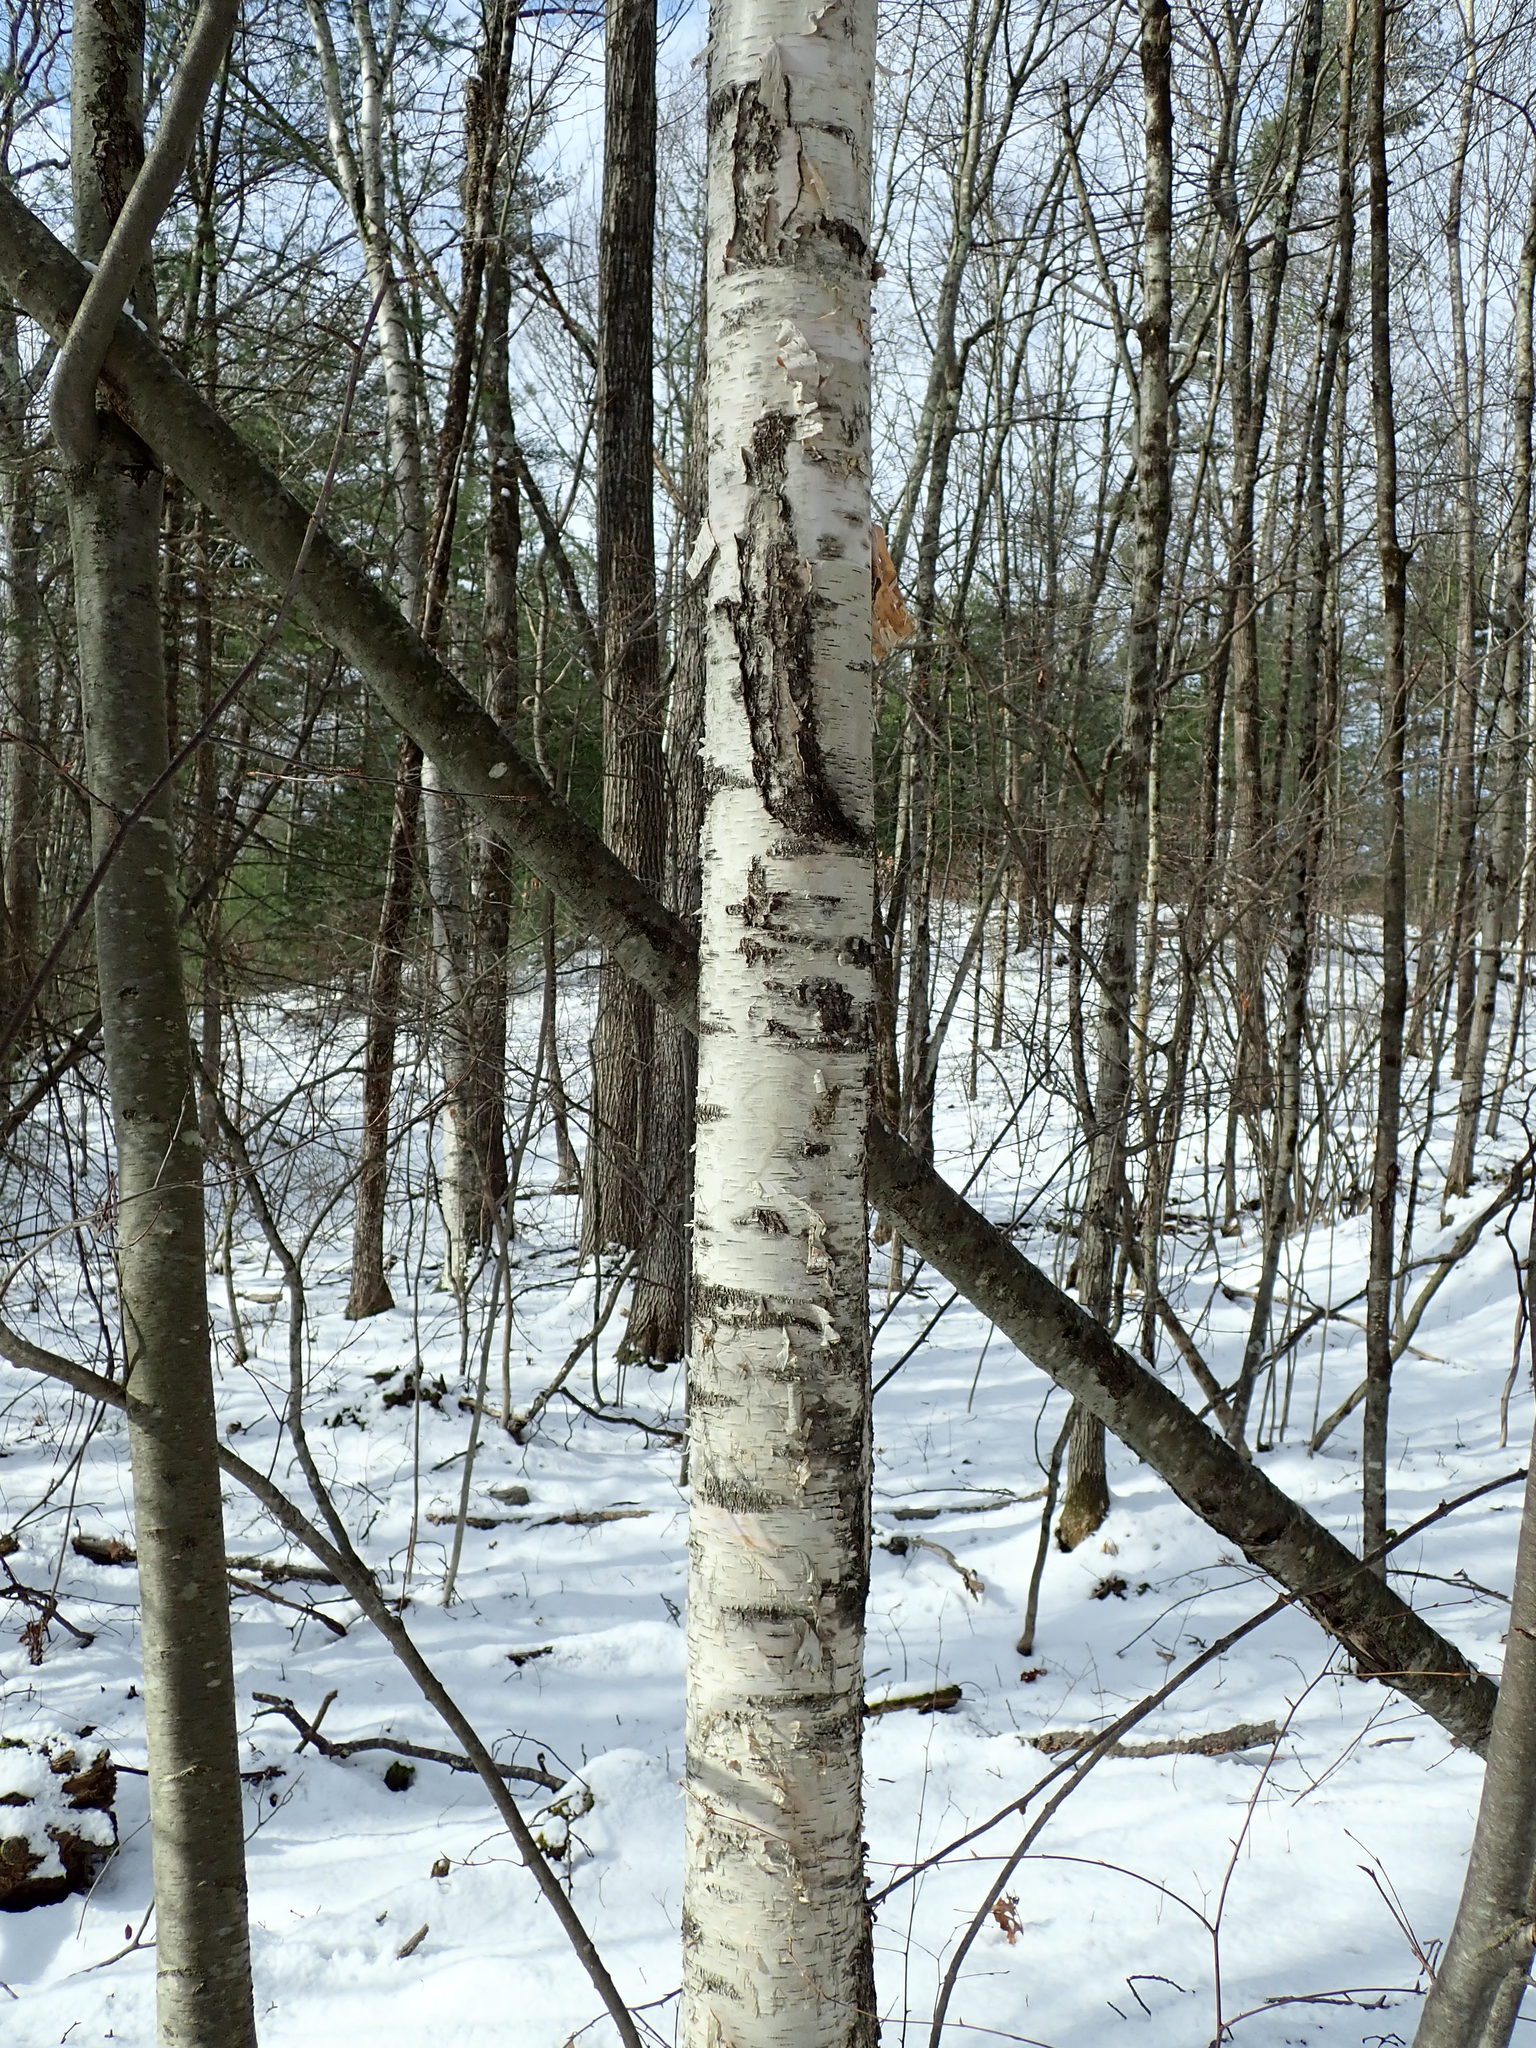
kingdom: Plantae
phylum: Tracheophyta
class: Magnoliopsida
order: Fagales
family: Betulaceae
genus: Betula
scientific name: Betula papyrifera
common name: Paper birch
